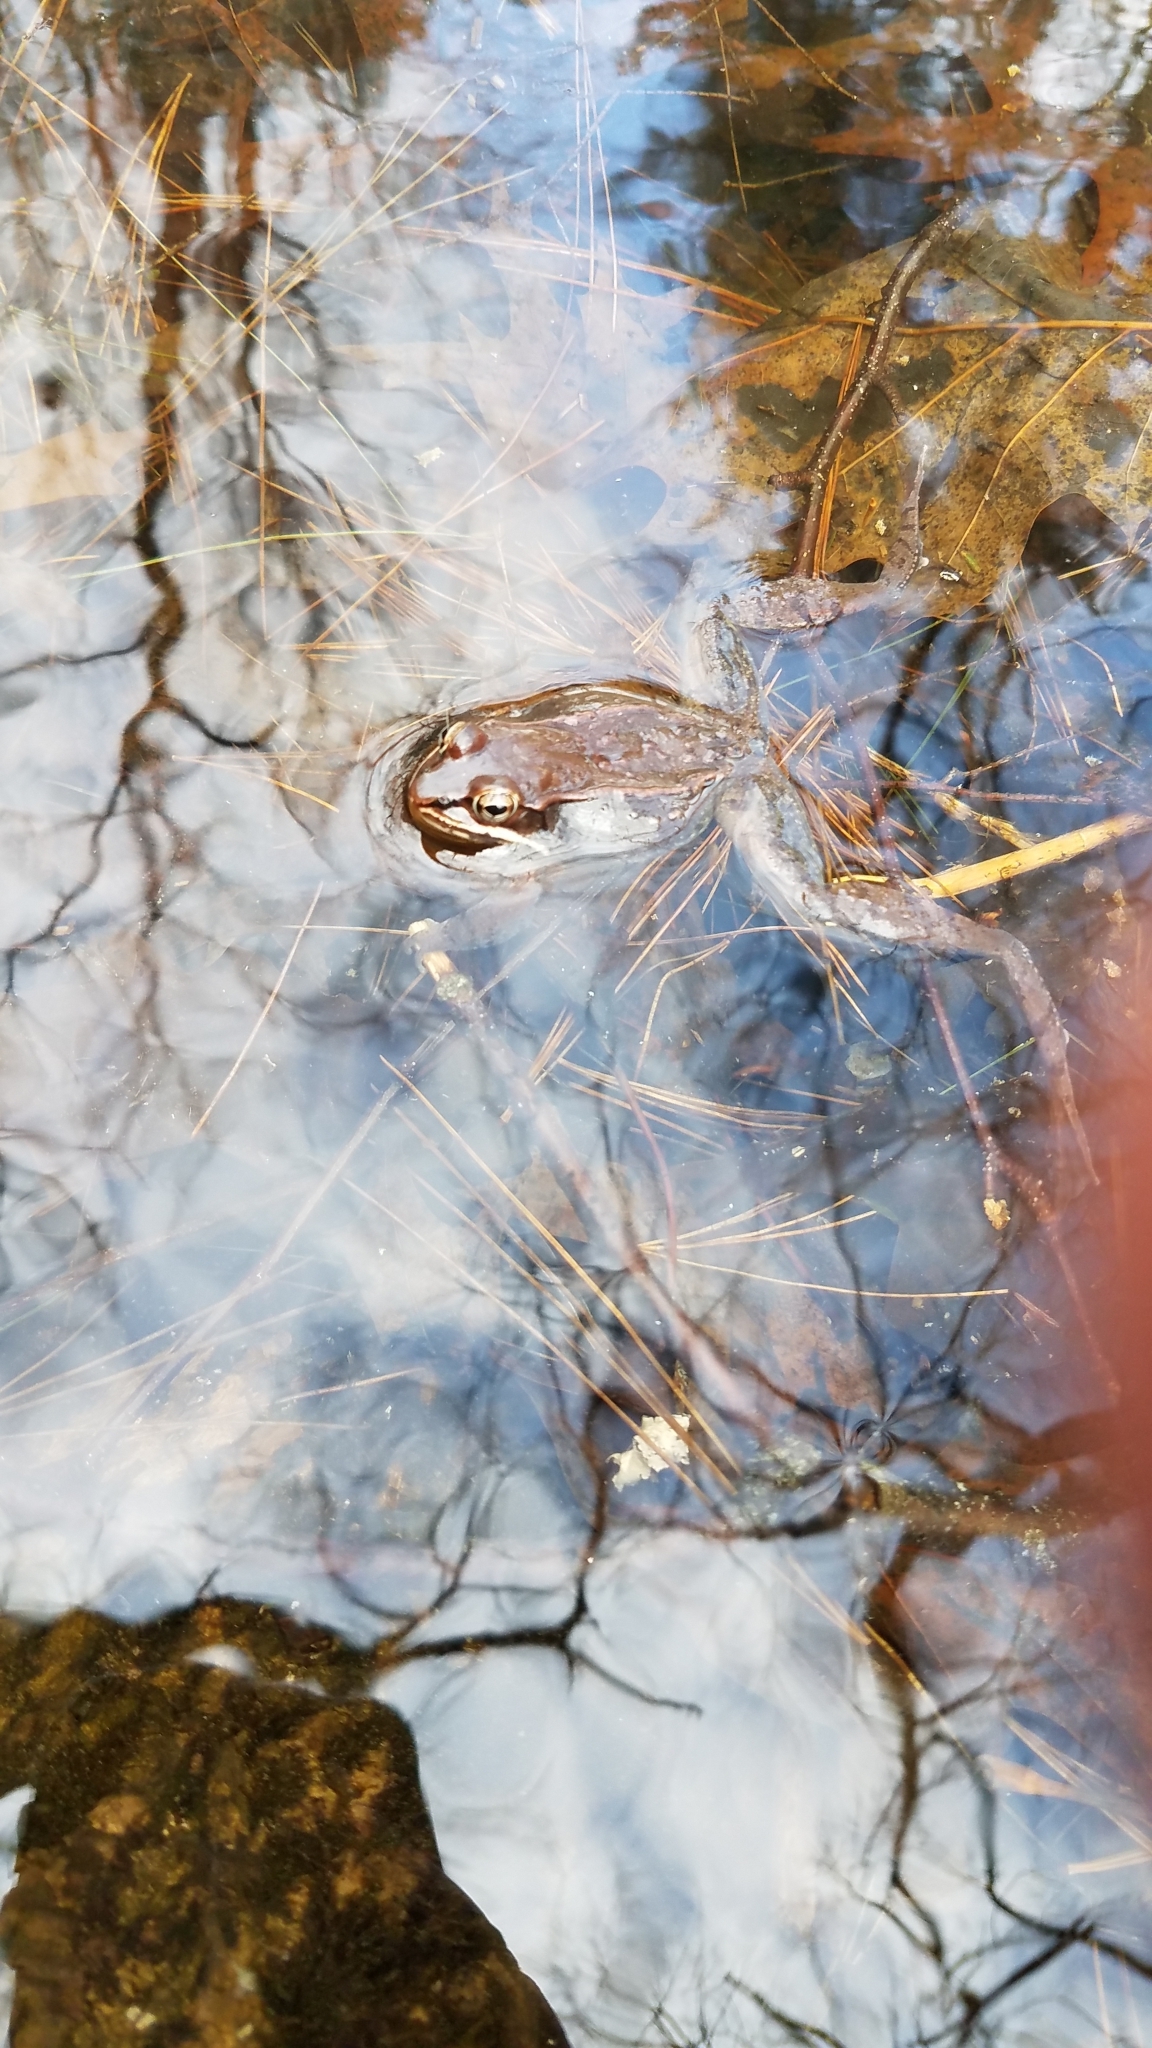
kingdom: Animalia
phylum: Chordata
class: Amphibia
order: Anura
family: Ranidae
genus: Lithobates
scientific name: Lithobates sylvaticus
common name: Wood frog
